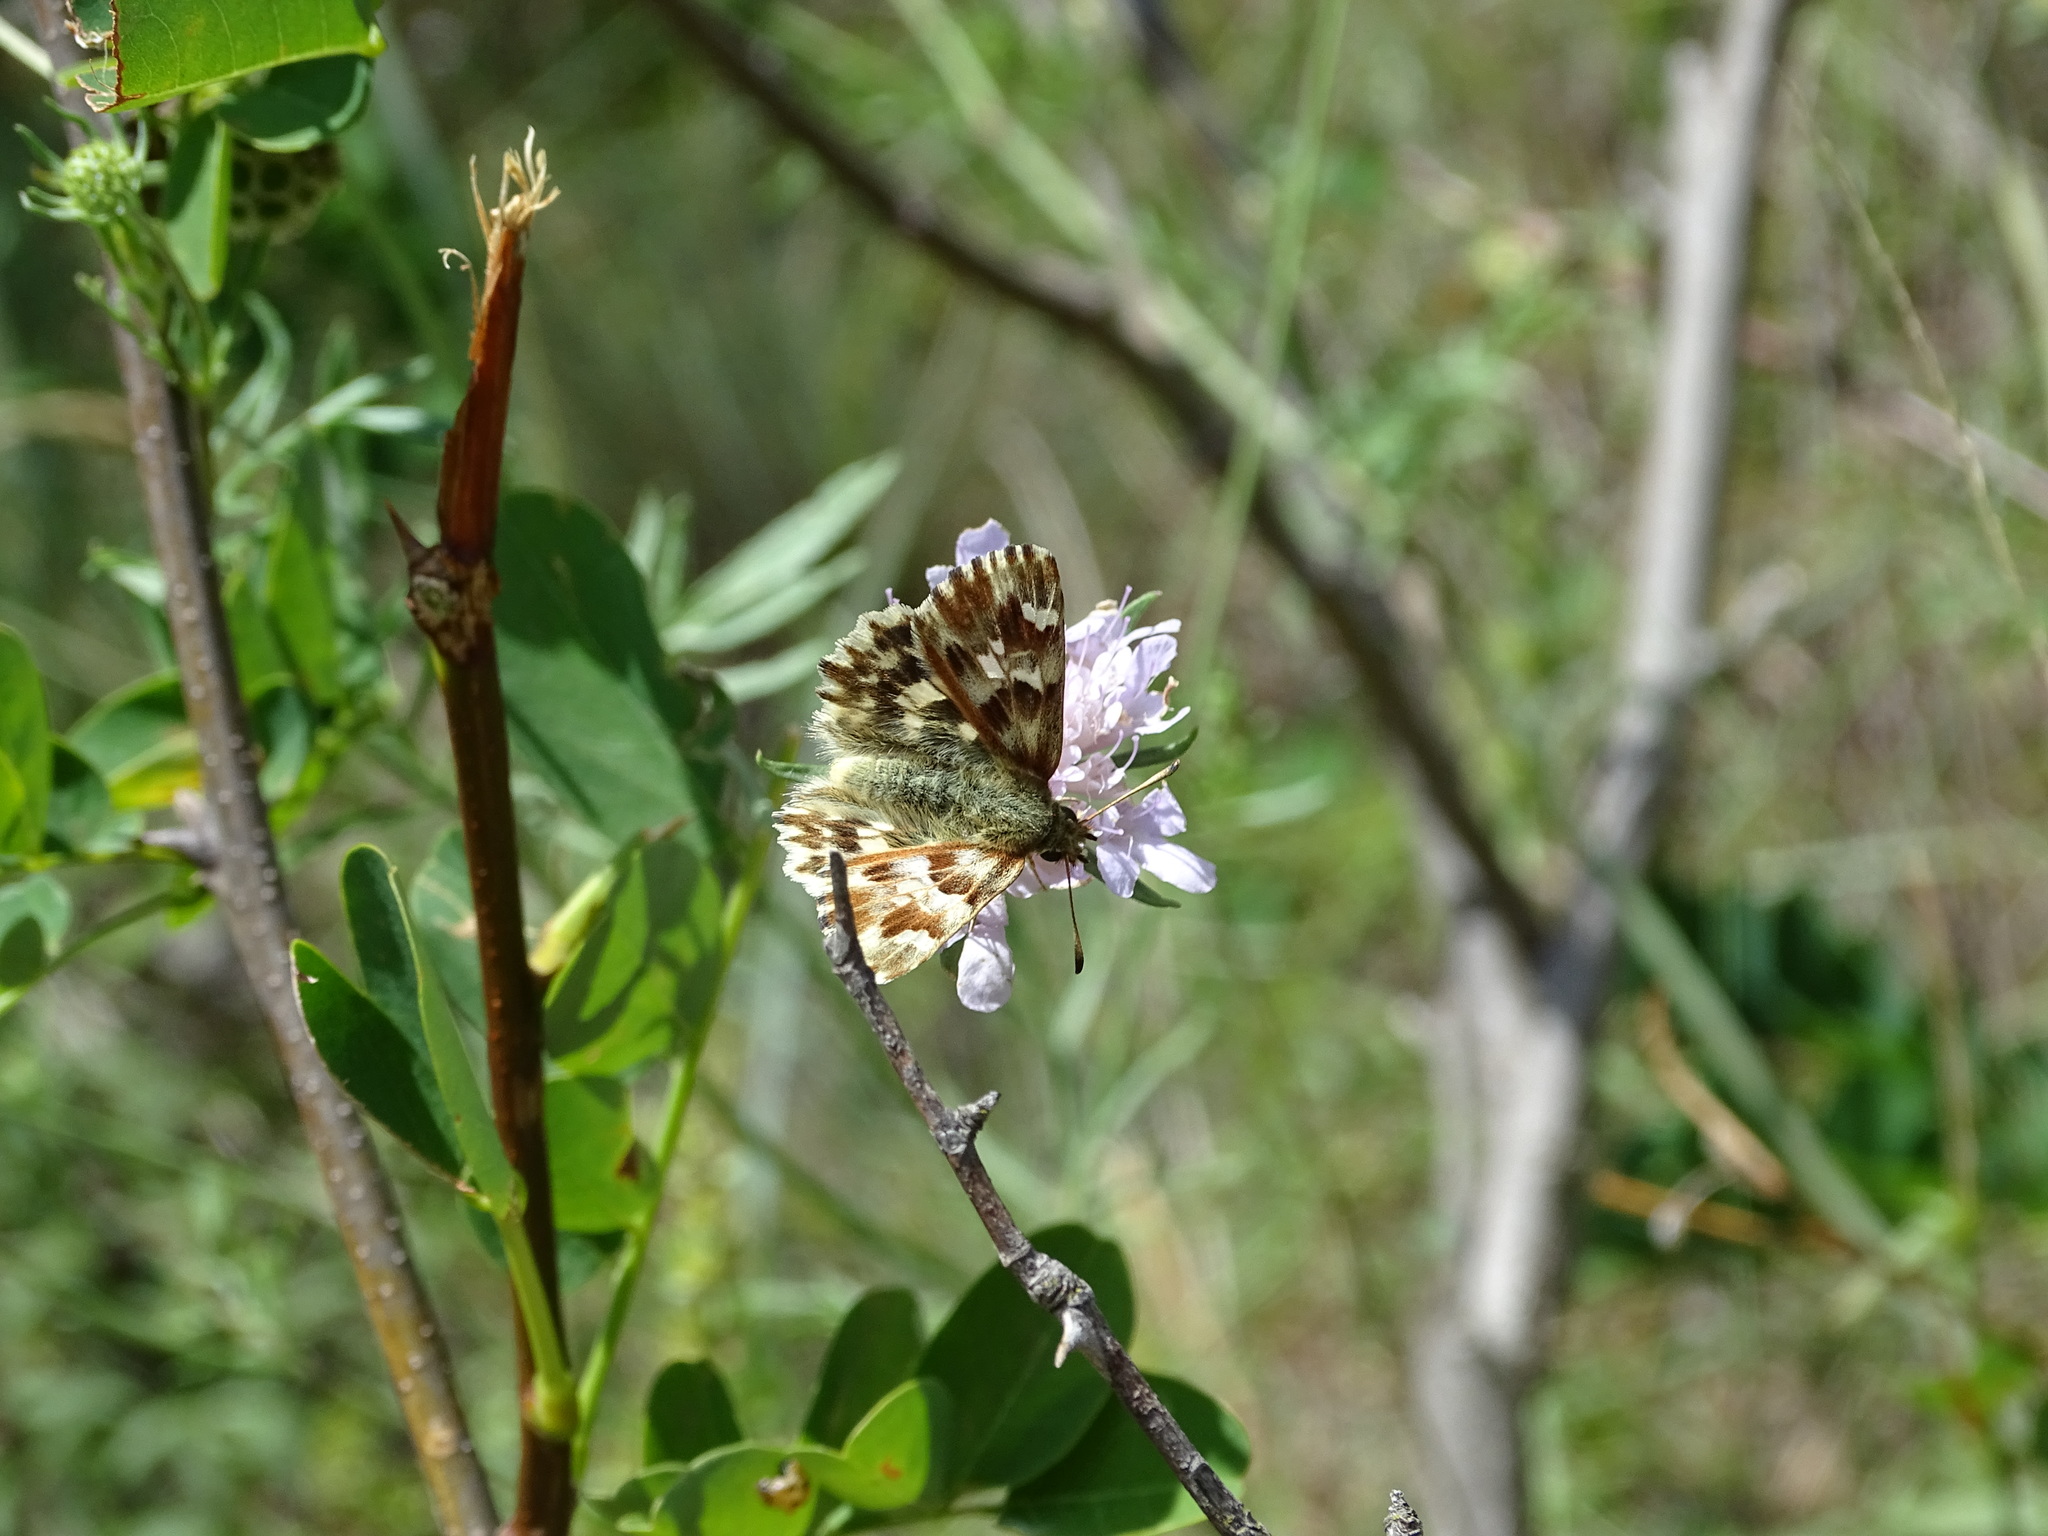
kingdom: Animalia
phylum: Arthropoda
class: Insecta
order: Lepidoptera
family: Hesperiidae
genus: Carcharodus
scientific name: Carcharodus lavatherae
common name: Marbled skipper
